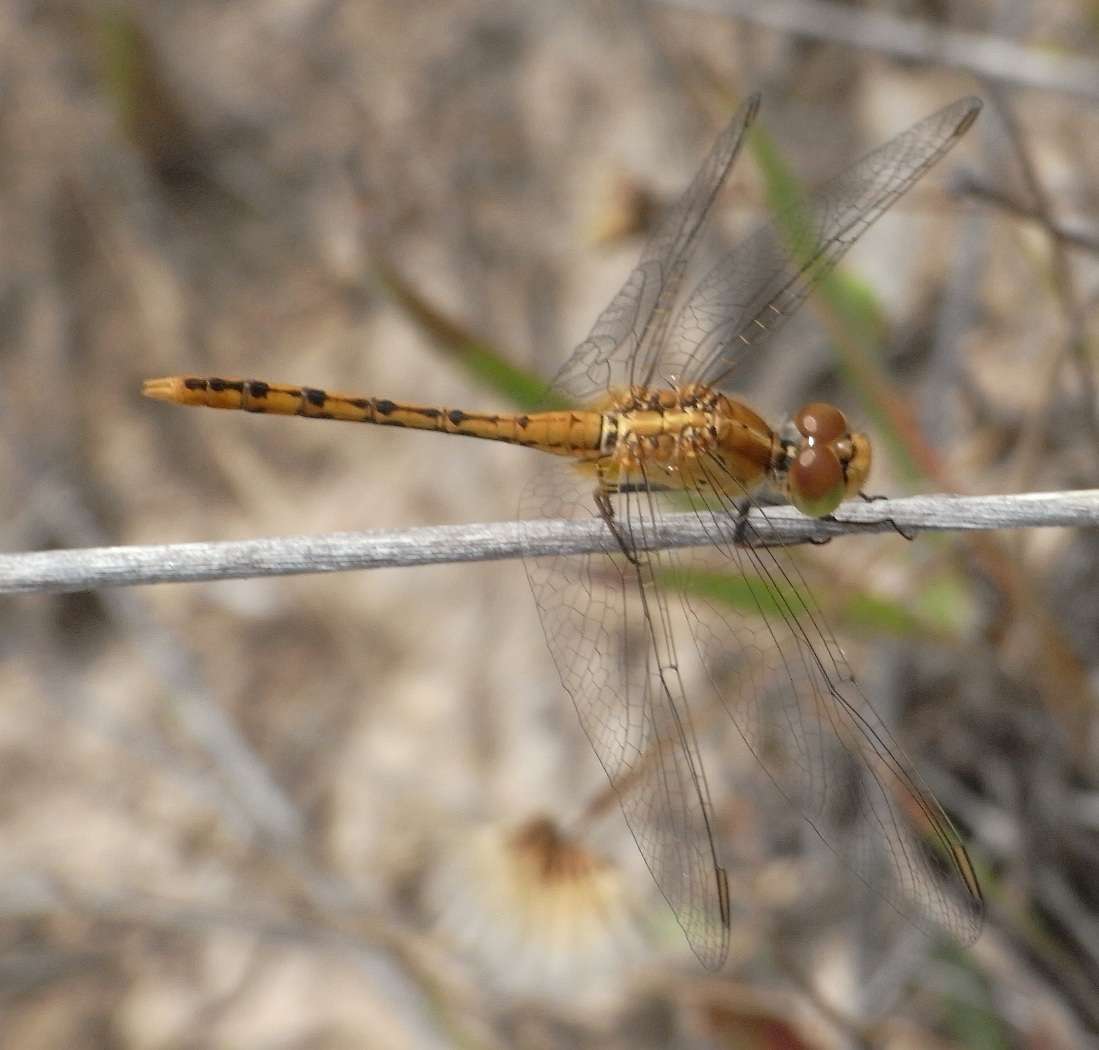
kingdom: Animalia
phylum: Arthropoda
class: Insecta
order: Odonata
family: Libellulidae
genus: Diplacodes
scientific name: Diplacodes bipunctata
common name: Red percher dragonfly
